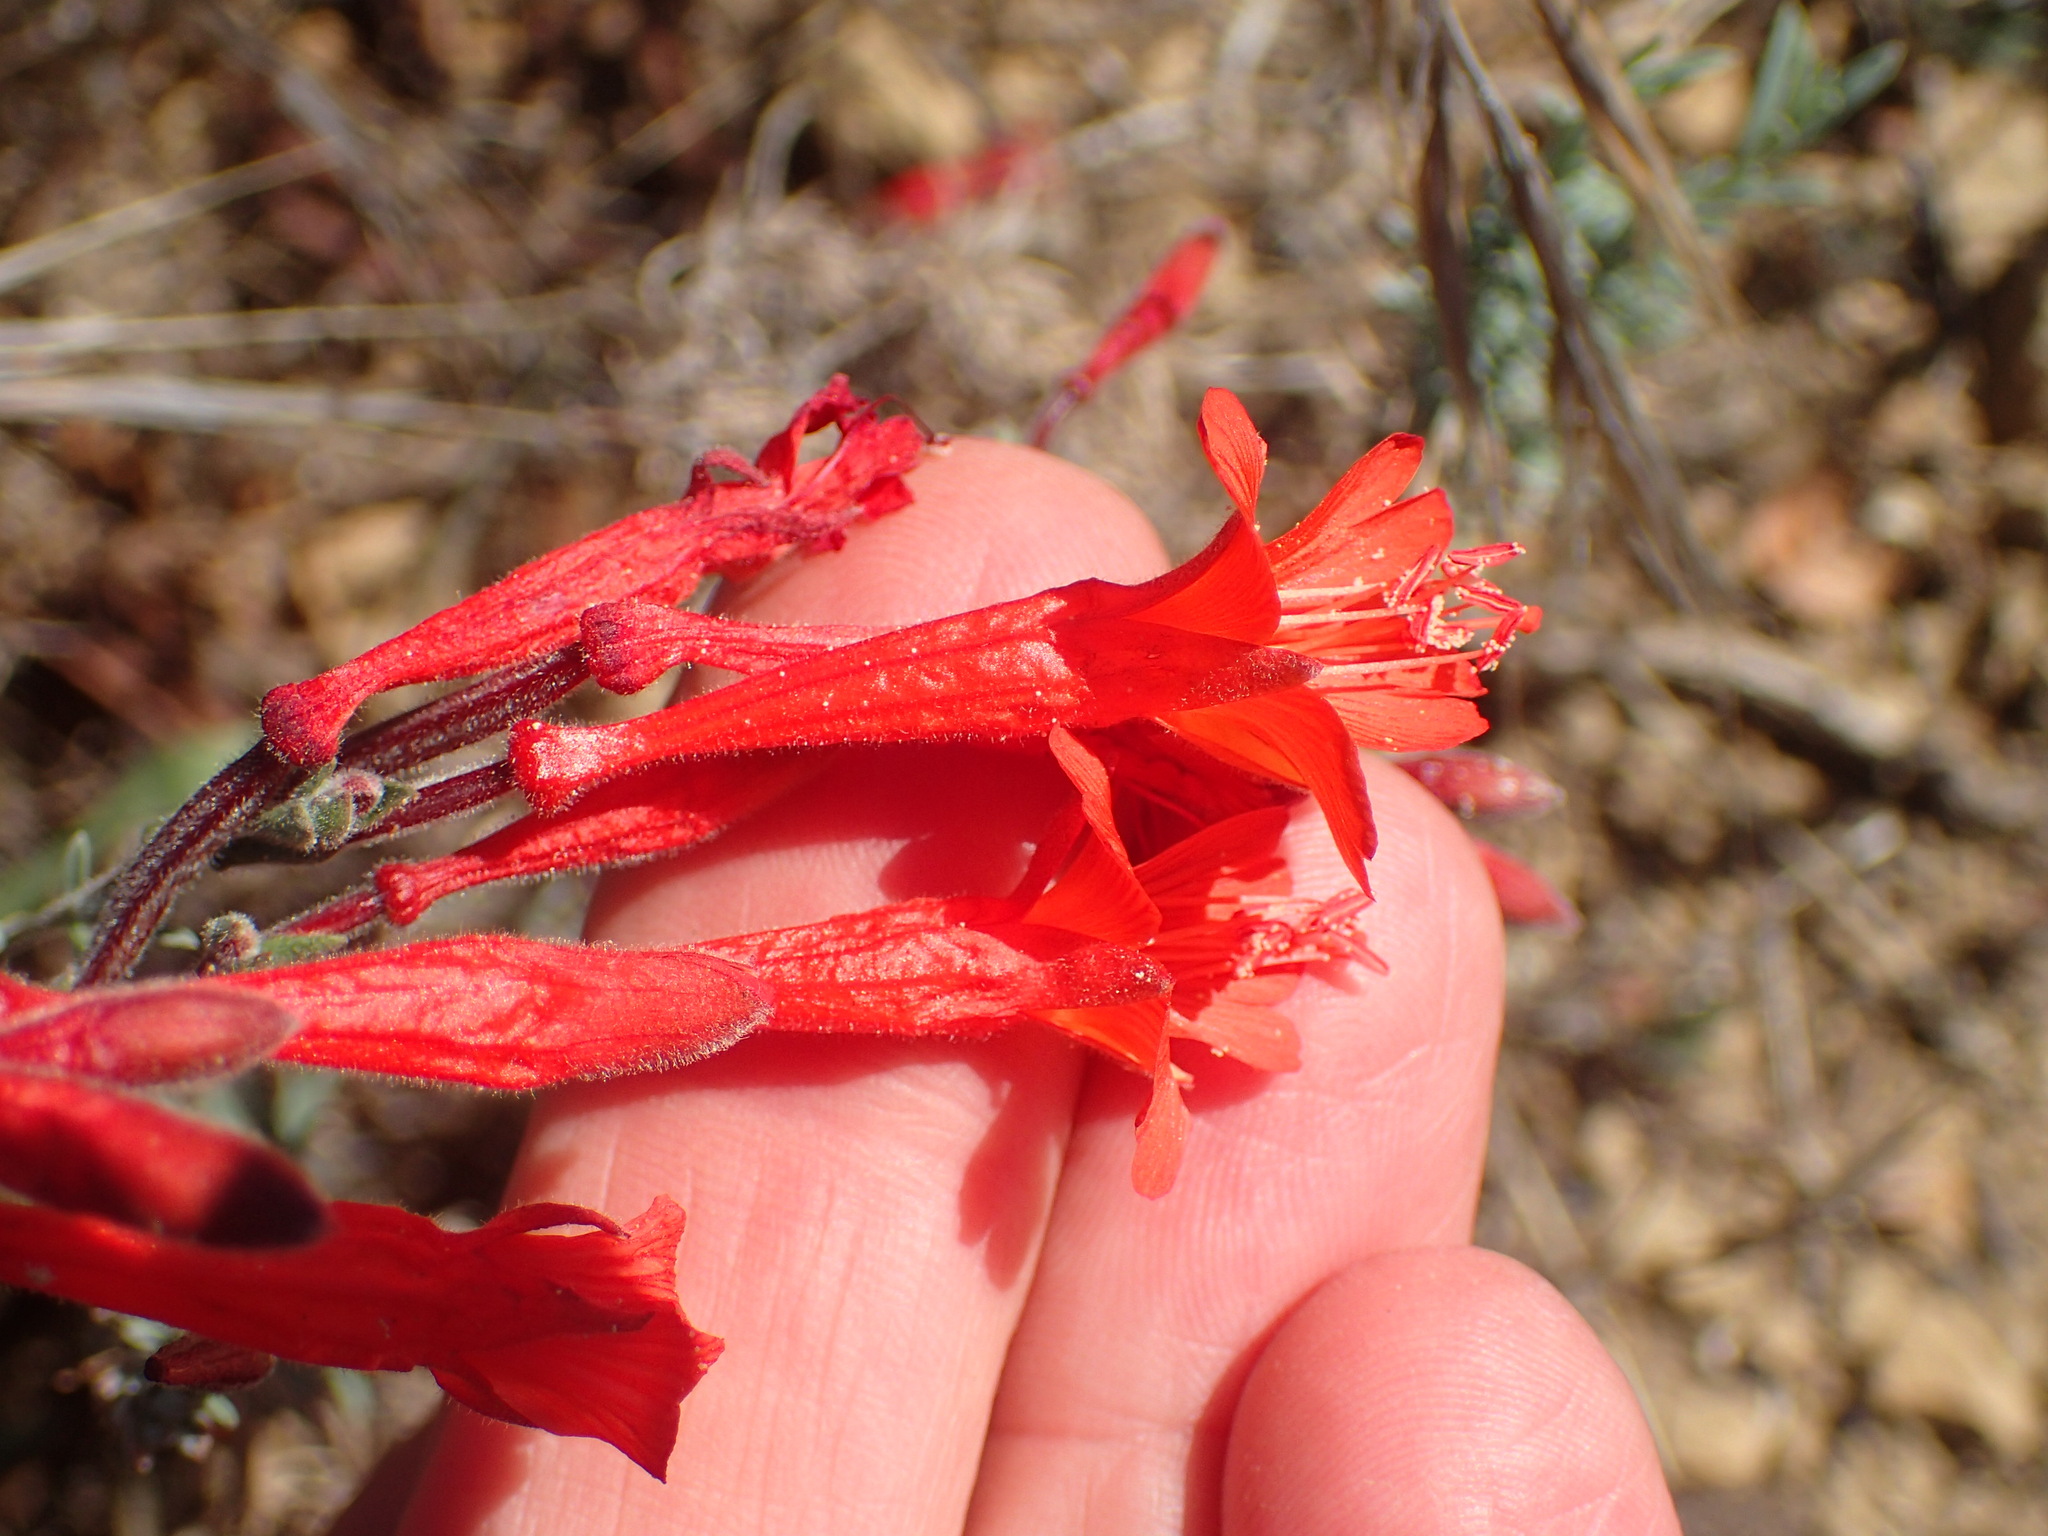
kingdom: Plantae
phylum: Tracheophyta
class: Magnoliopsida
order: Myrtales
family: Onagraceae
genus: Epilobium
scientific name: Epilobium canum
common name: California-fuchsia
